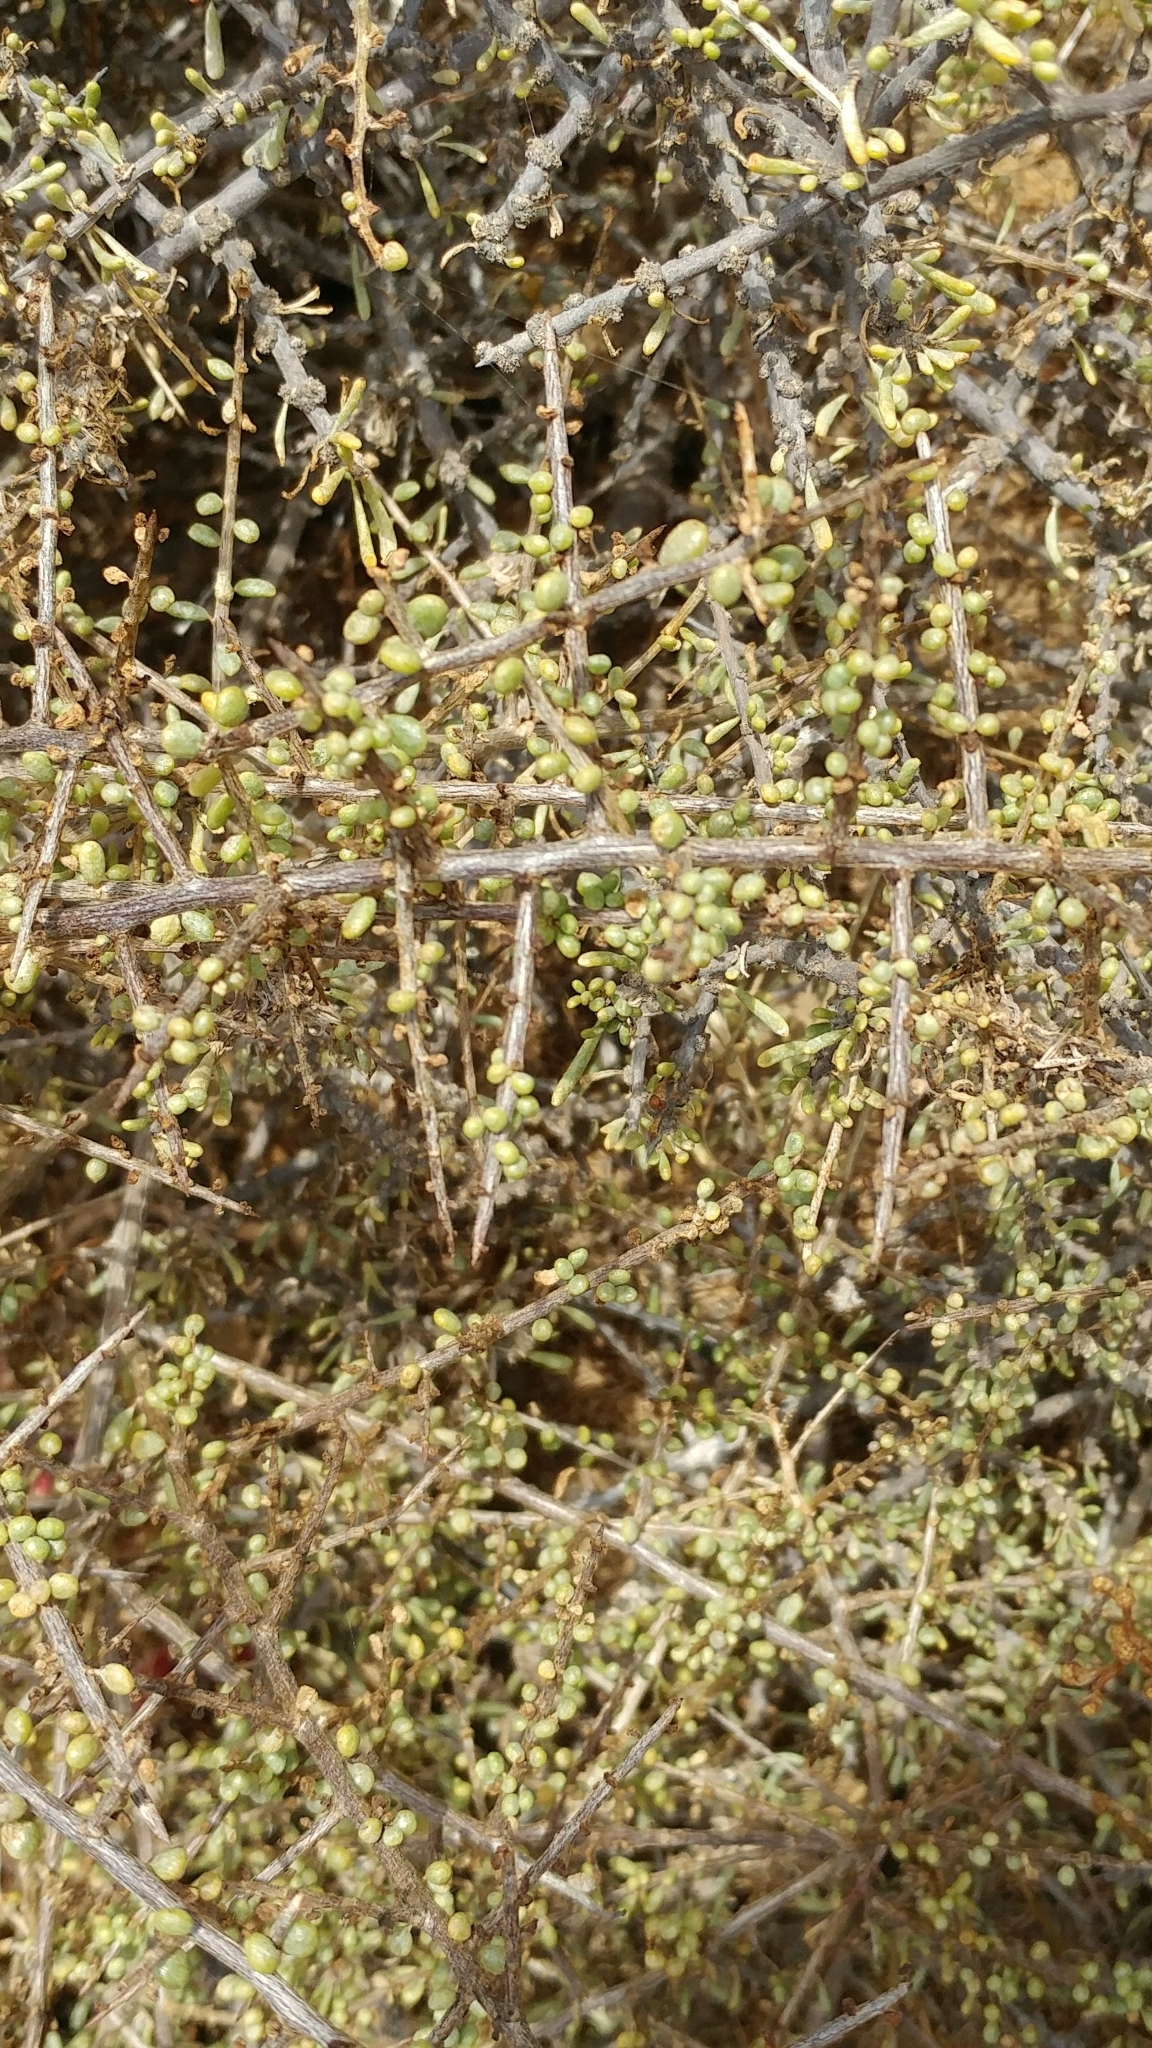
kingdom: Plantae
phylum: Tracheophyta
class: Magnoliopsida
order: Solanales
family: Solanaceae
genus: Lycium
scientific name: Lycium californicum
